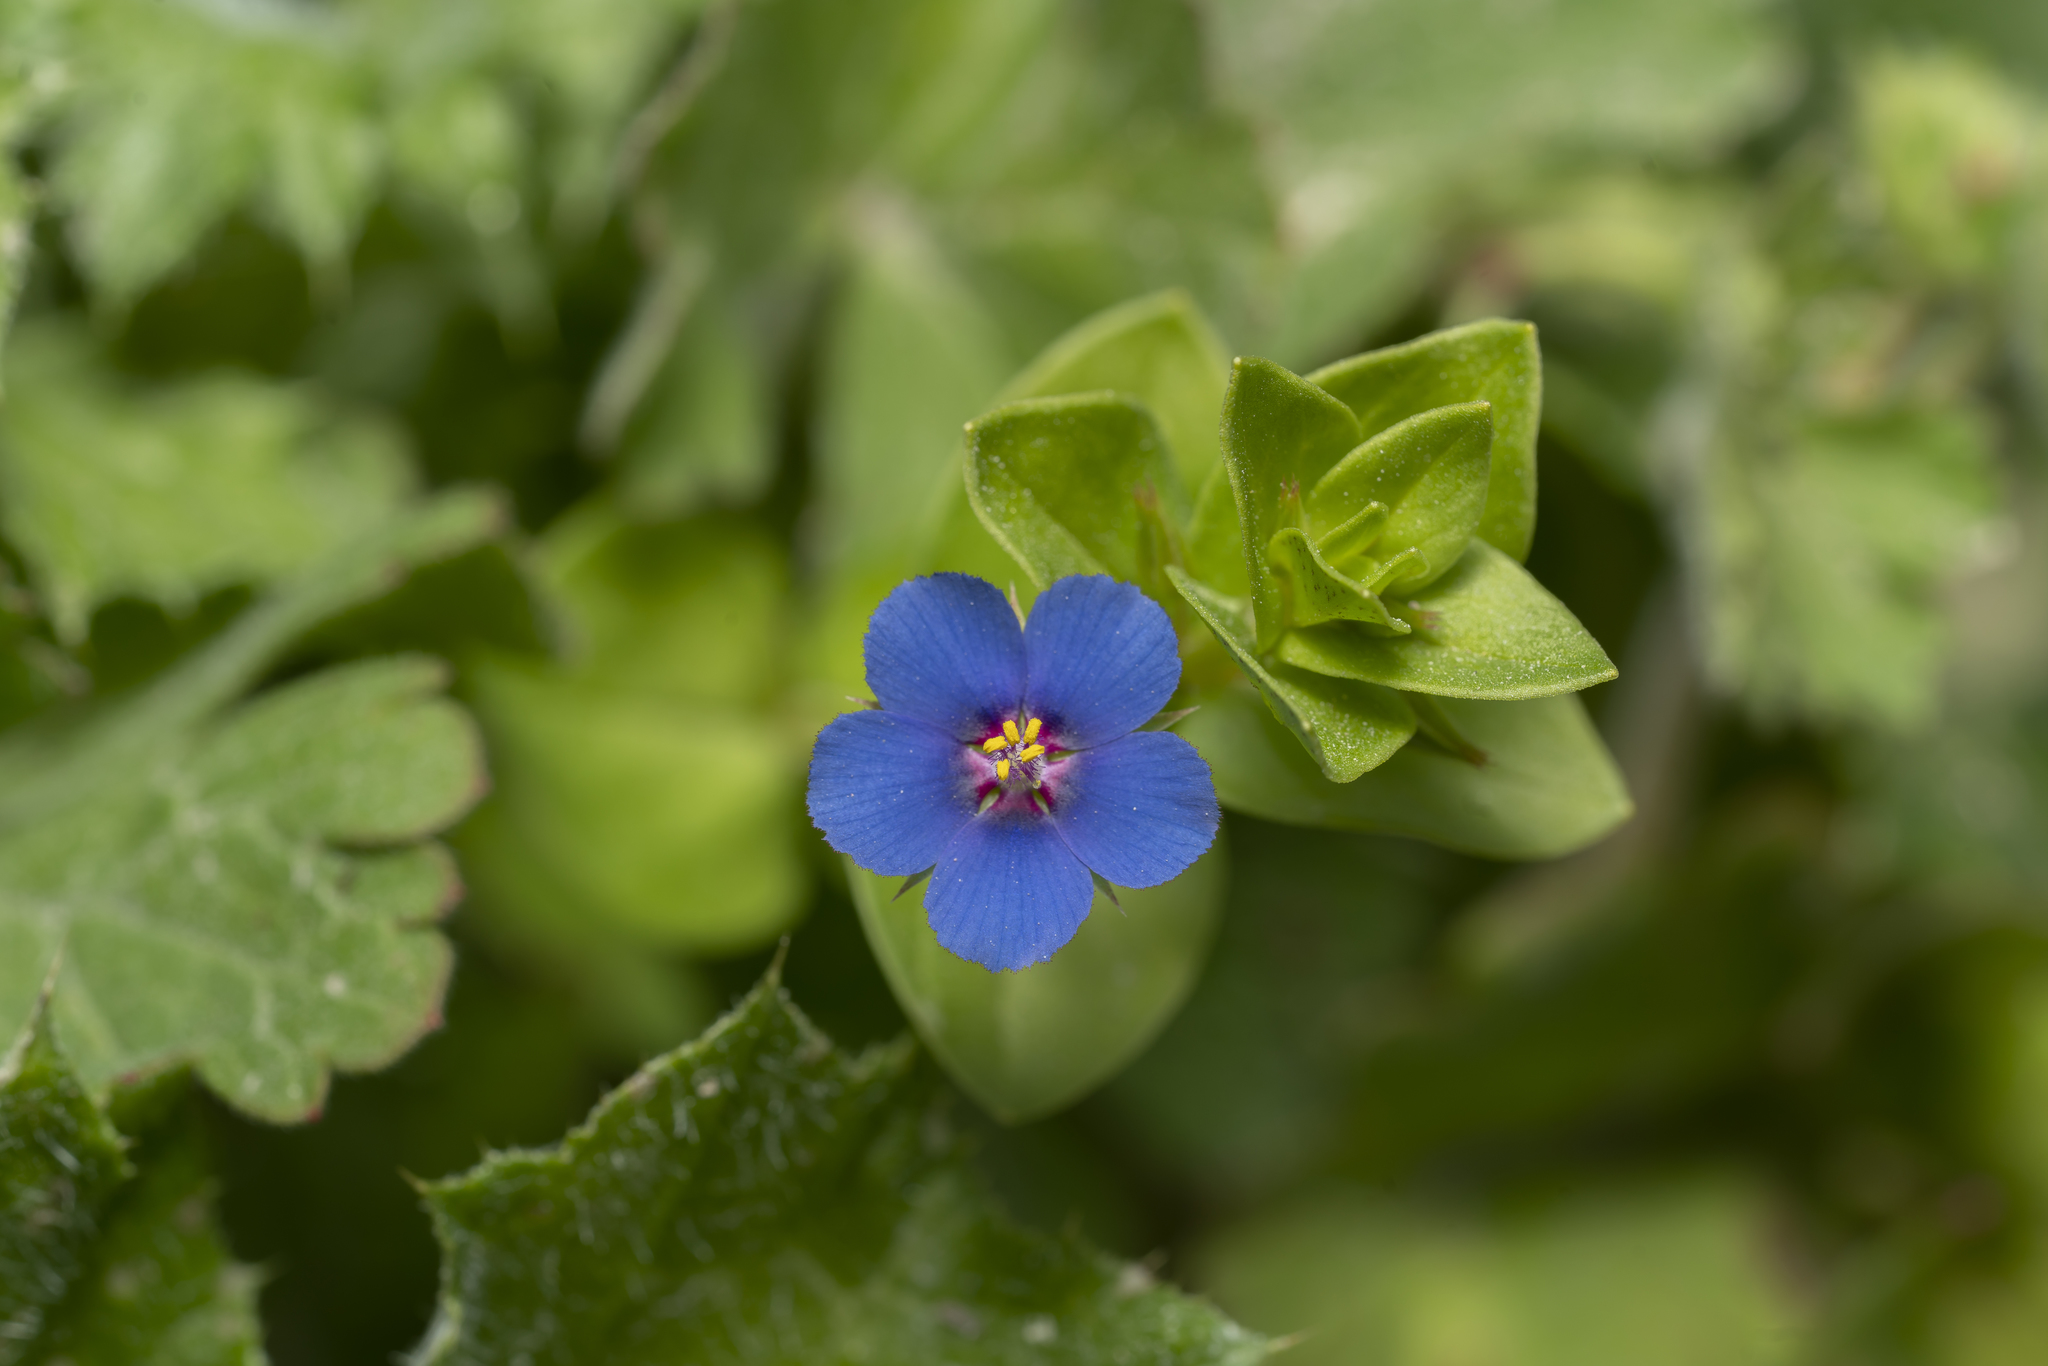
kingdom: Plantae
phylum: Tracheophyta
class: Magnoliopsida
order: Ericales
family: Primulaceae
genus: Lysimachia
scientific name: Lysimachia loeflingii
